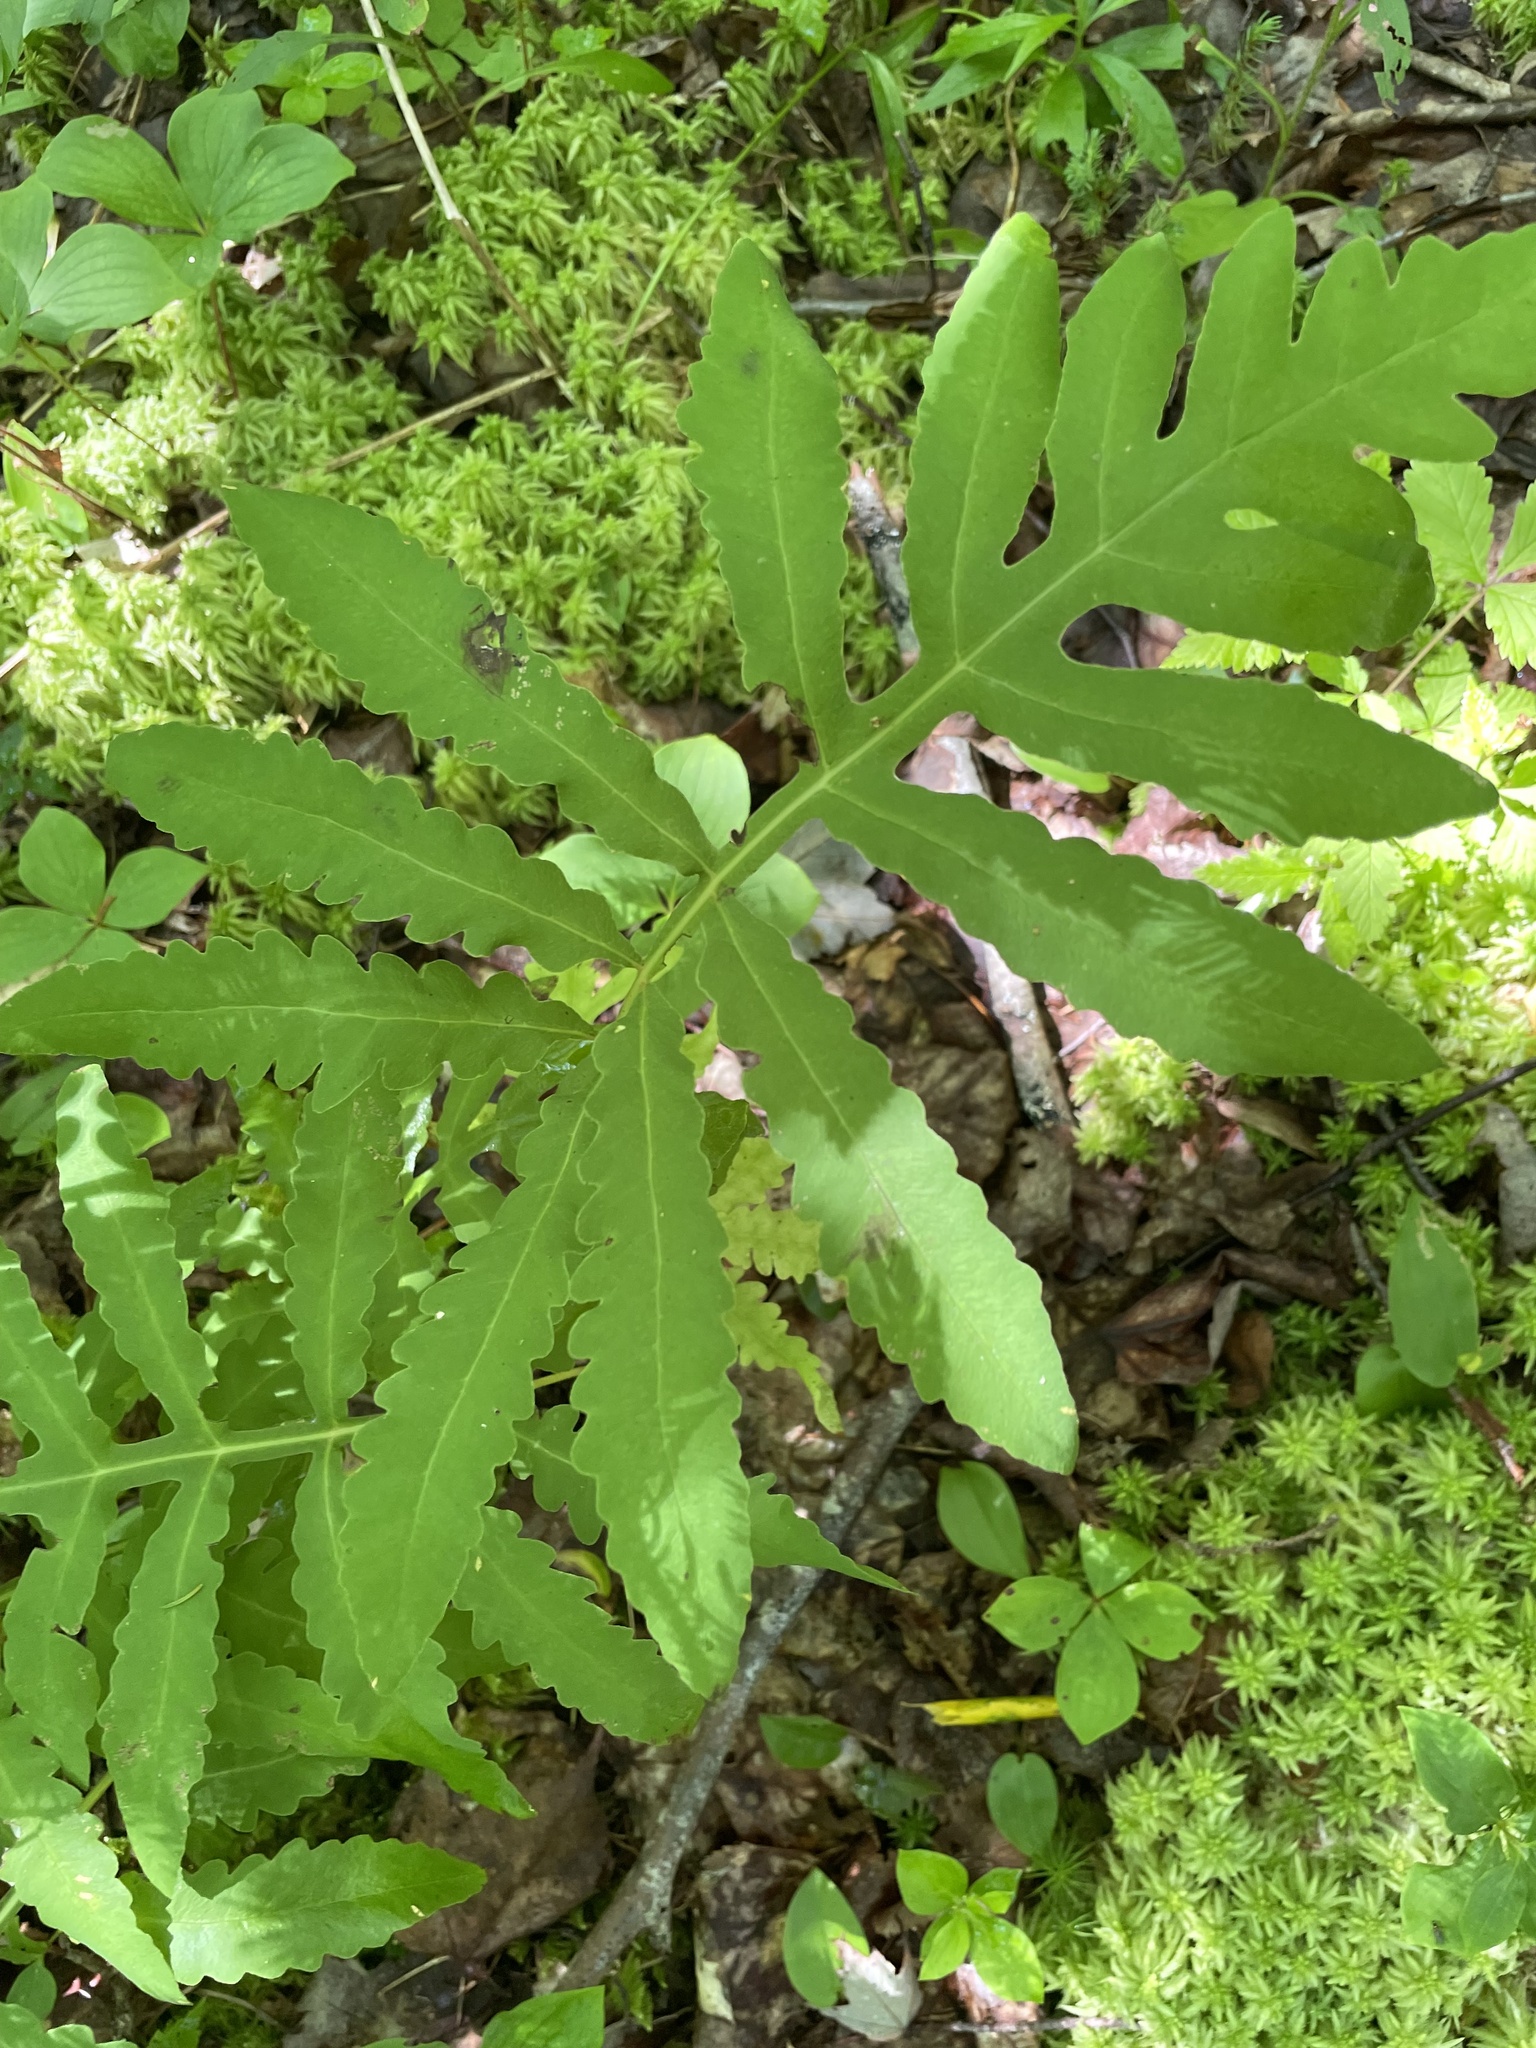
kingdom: Plantae
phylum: Tracheophyta
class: Polypodiopsida
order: Polypodiales
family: Onocleaceae
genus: Onoclea
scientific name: Onoclea sensibilis
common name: Sensitive fern
